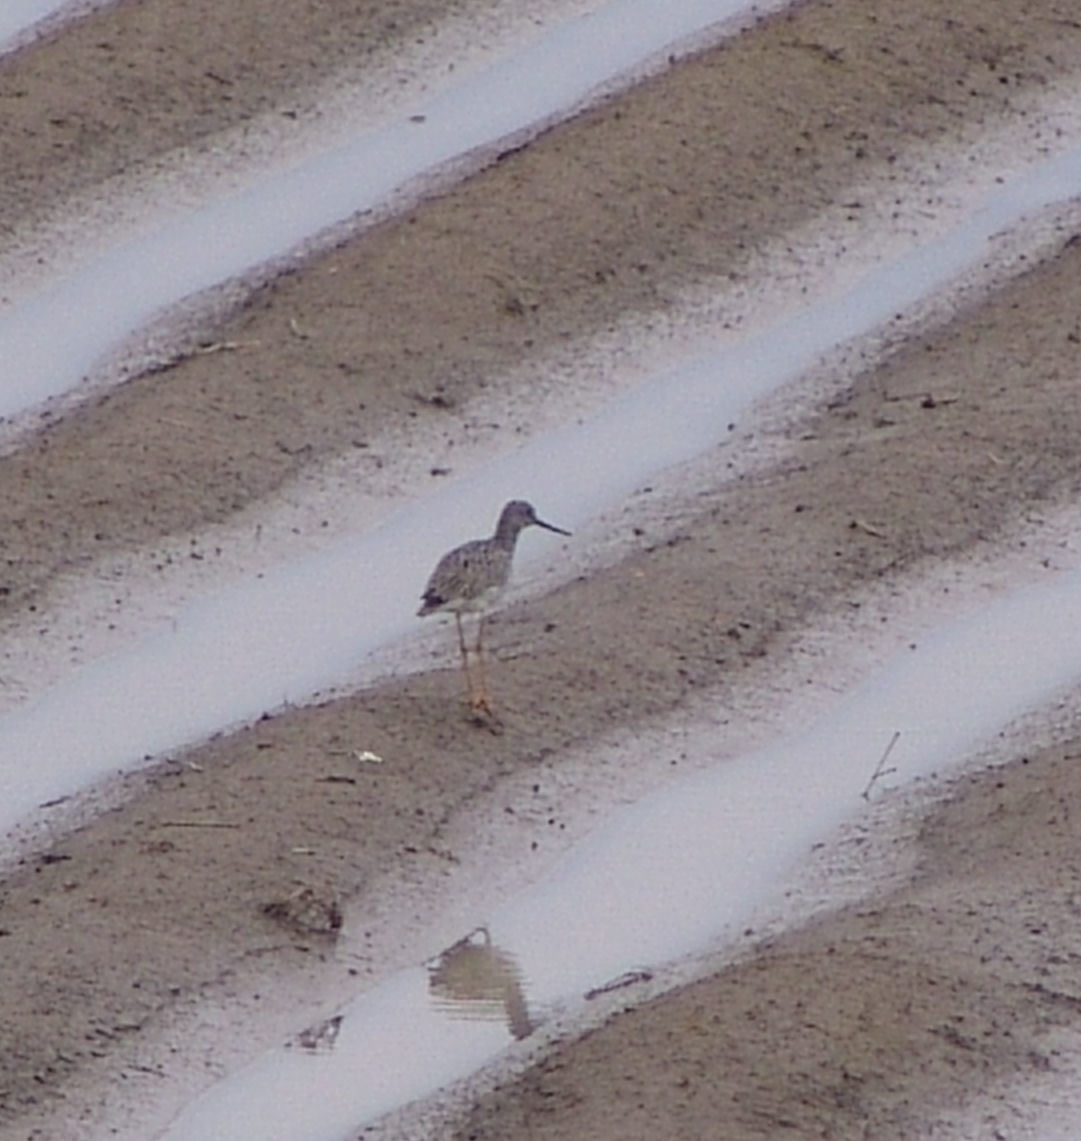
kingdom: Animalia
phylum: Chordata
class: Aves
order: Charadriiformes
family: Scolopacidae
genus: Tringa
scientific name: Tringa melanoleuca
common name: Greater yellowlegs
